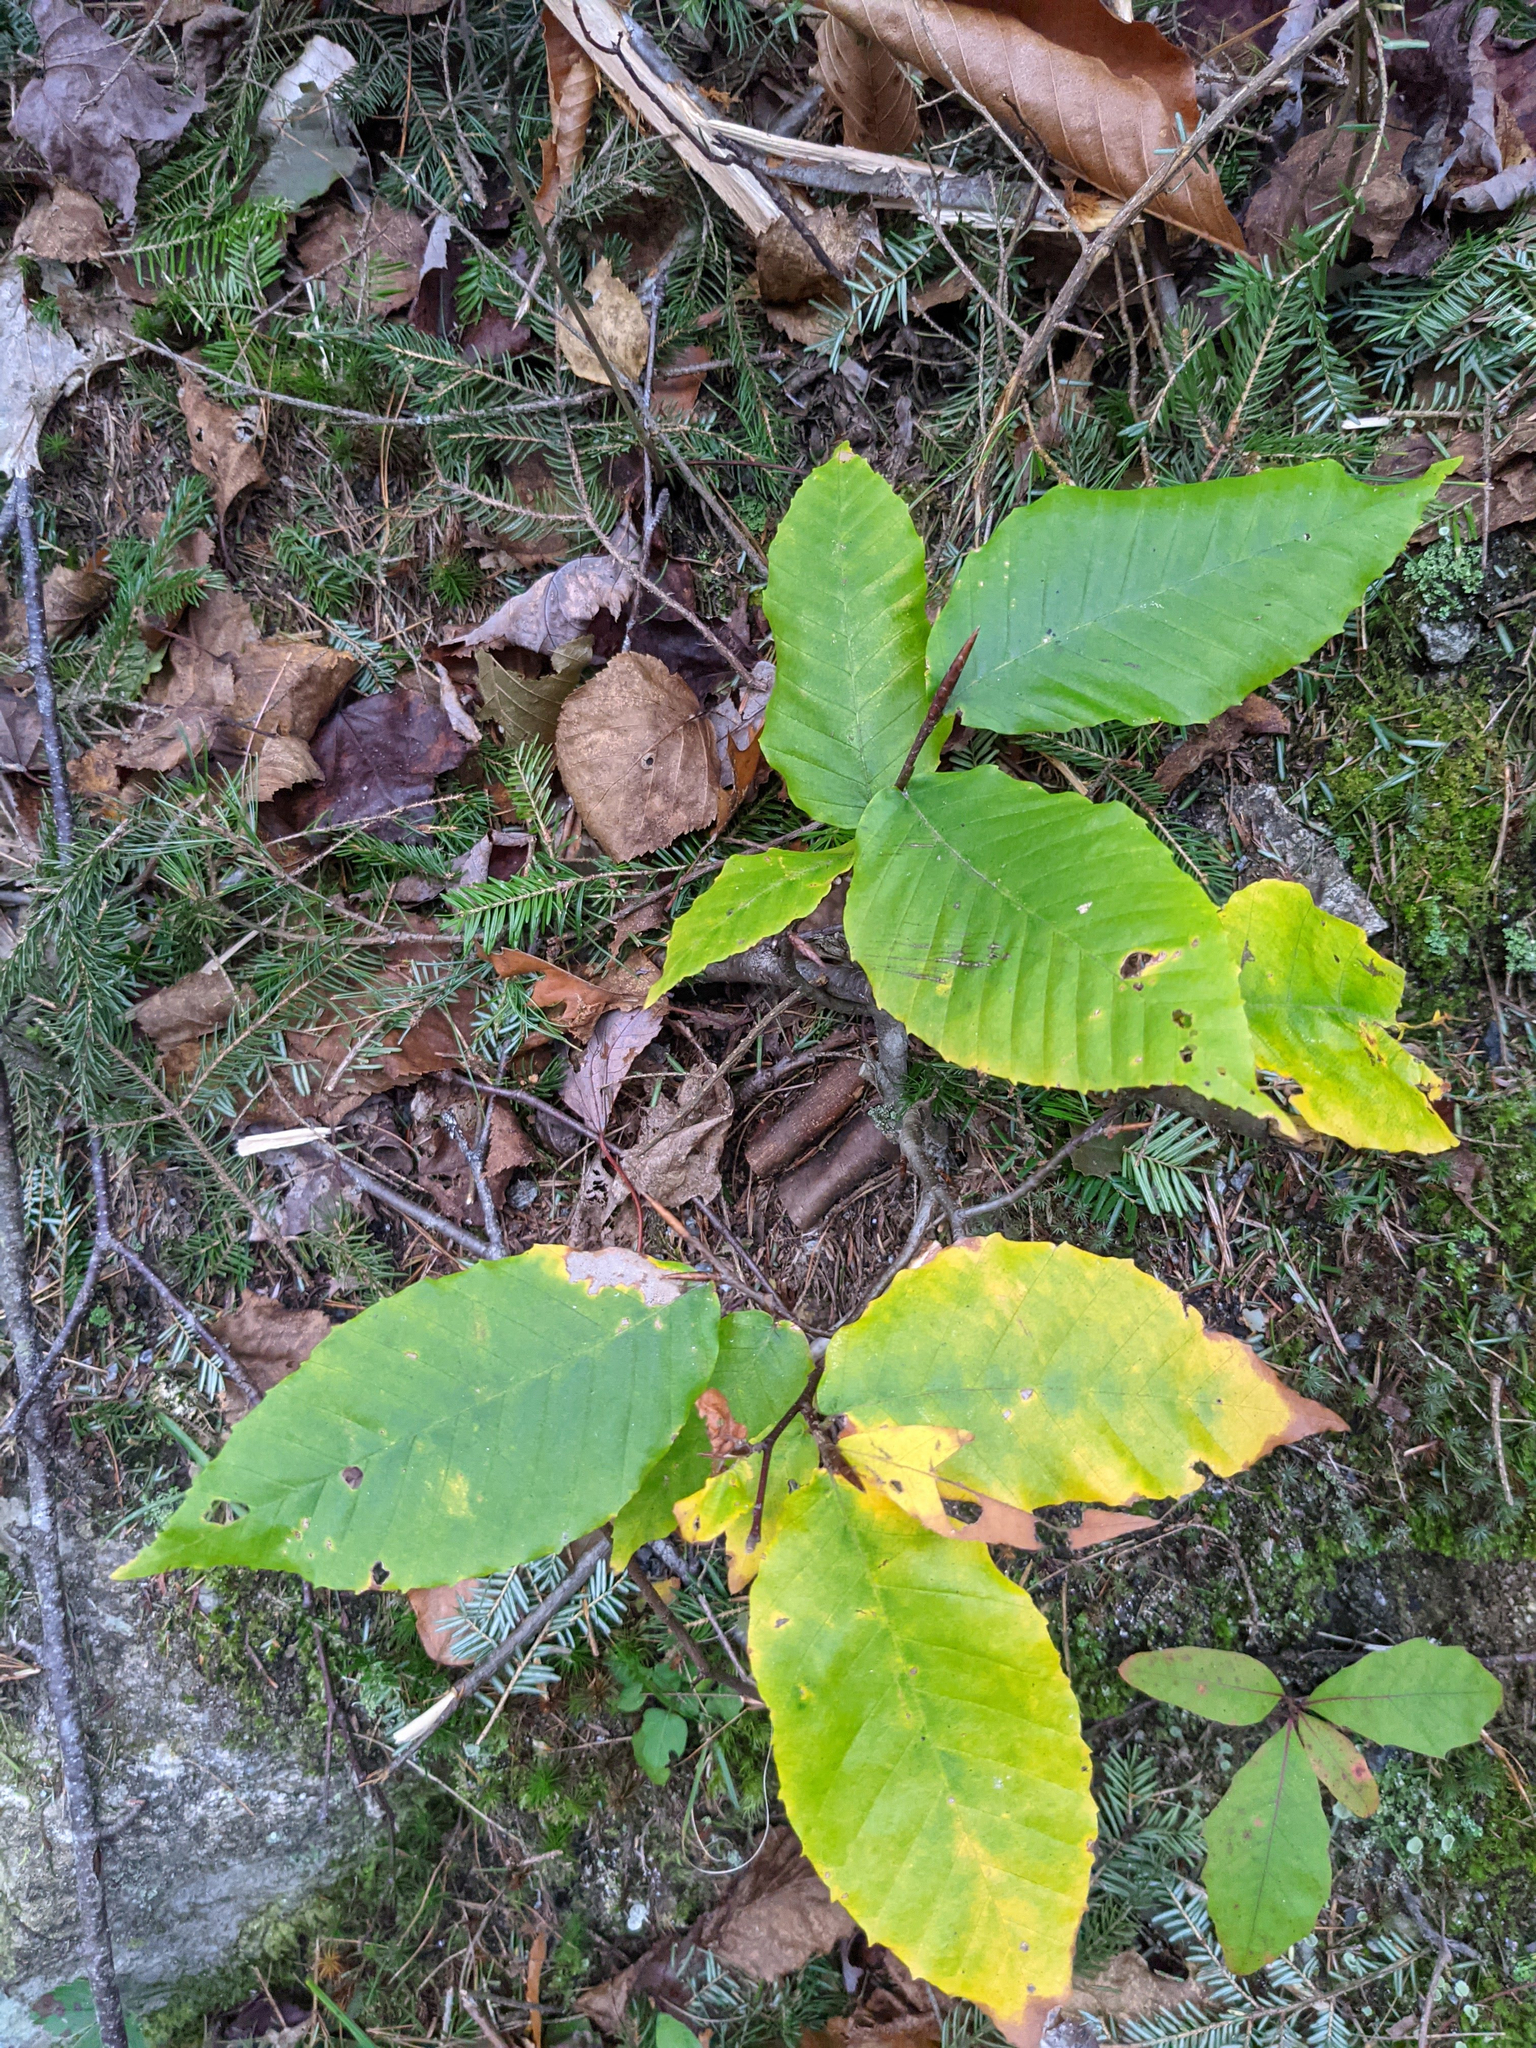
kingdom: Plantae
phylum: Tracheophyta
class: Magnoliopsida
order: Fagales
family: Fagaceae
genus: Fagus
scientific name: Fagus grandifolia
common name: American beech
